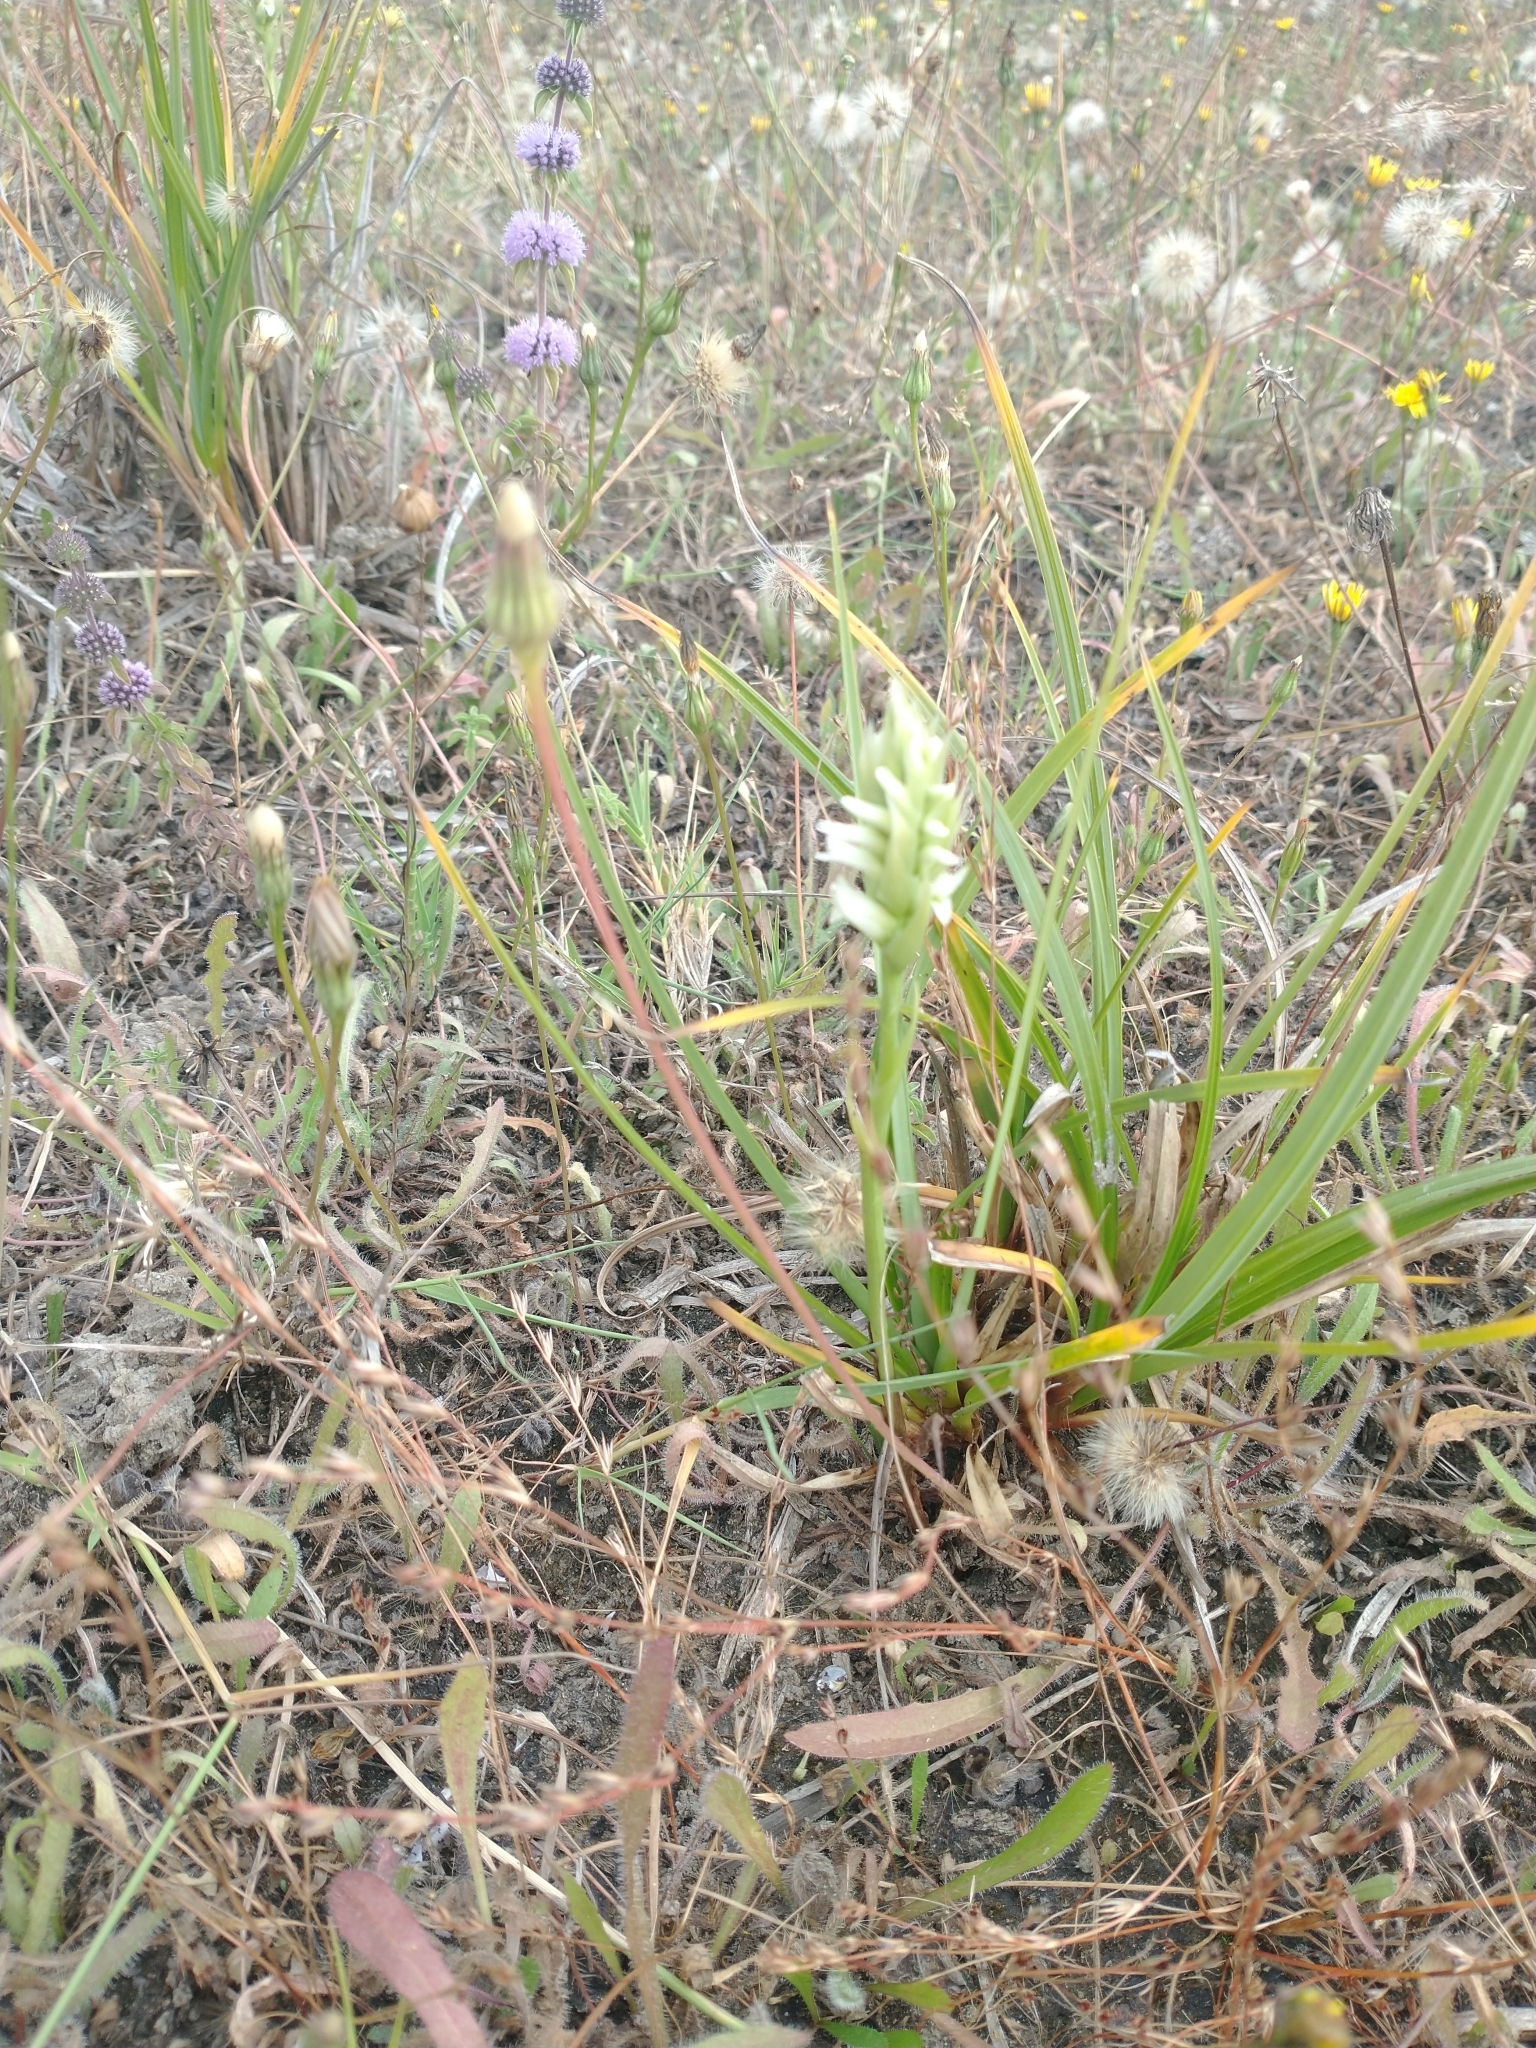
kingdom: Plantae
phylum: Tracheophyta
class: Liliopsida
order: Asparagales
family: Orchidaceae
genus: Spiranthes
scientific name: Spiranthes romanzoffiana
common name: Irish lady's-tresses
